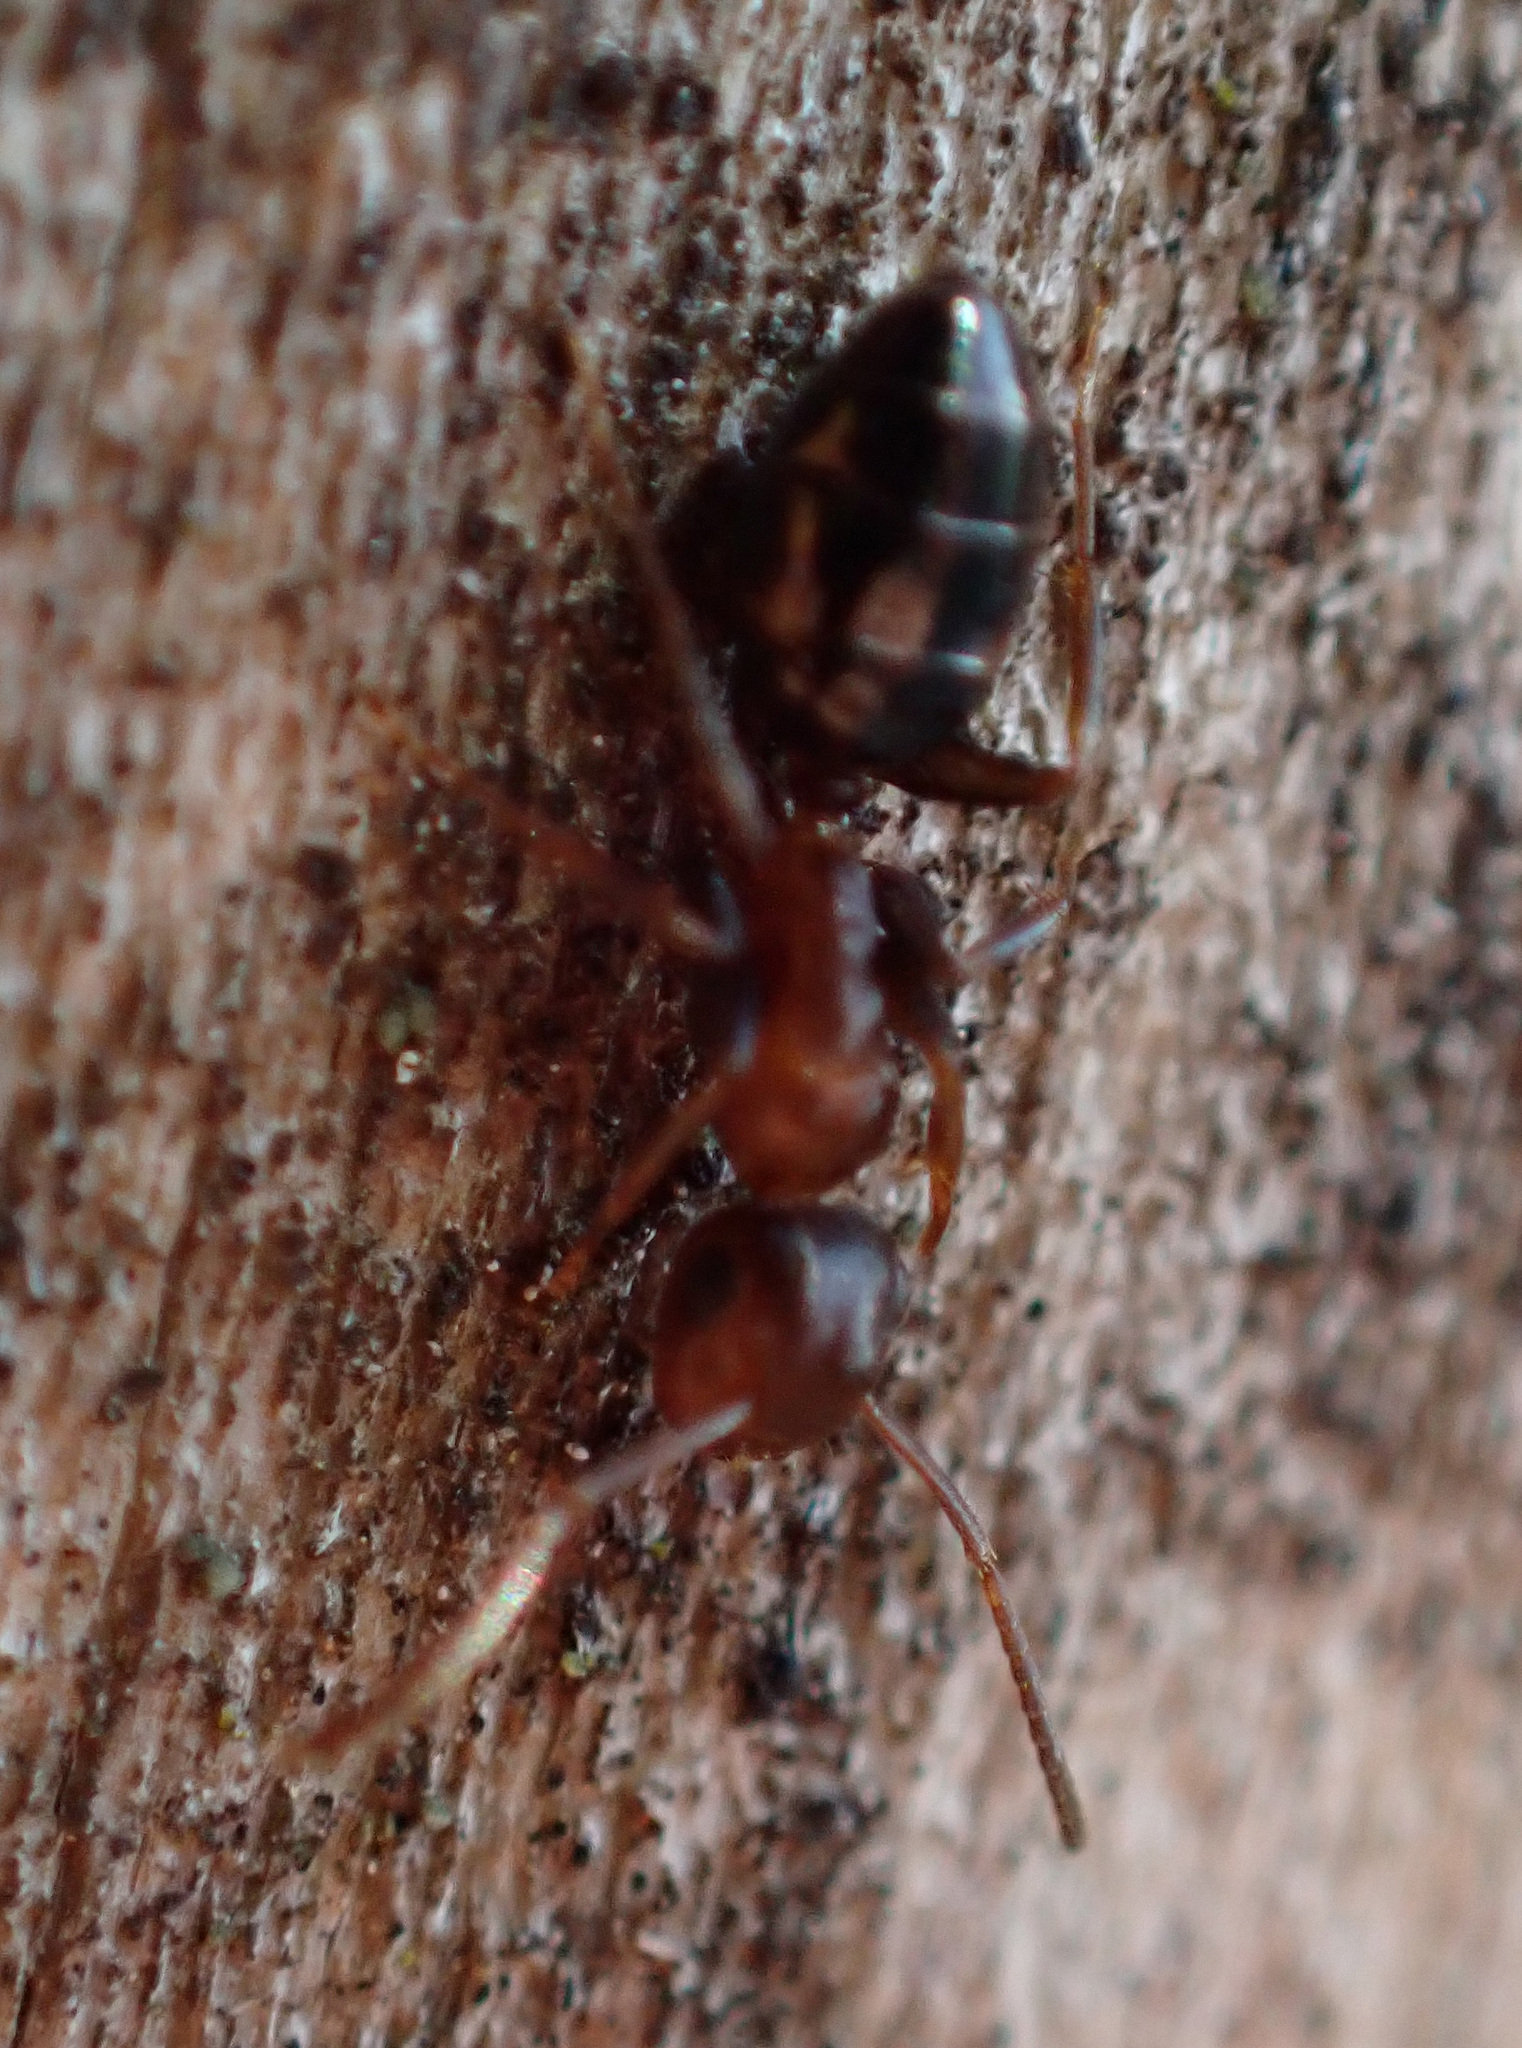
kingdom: Animalia
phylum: Arthropoda
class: Insecta
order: Hymenoptera
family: Formicidae
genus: Camponotus
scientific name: Camponotus truncatus
